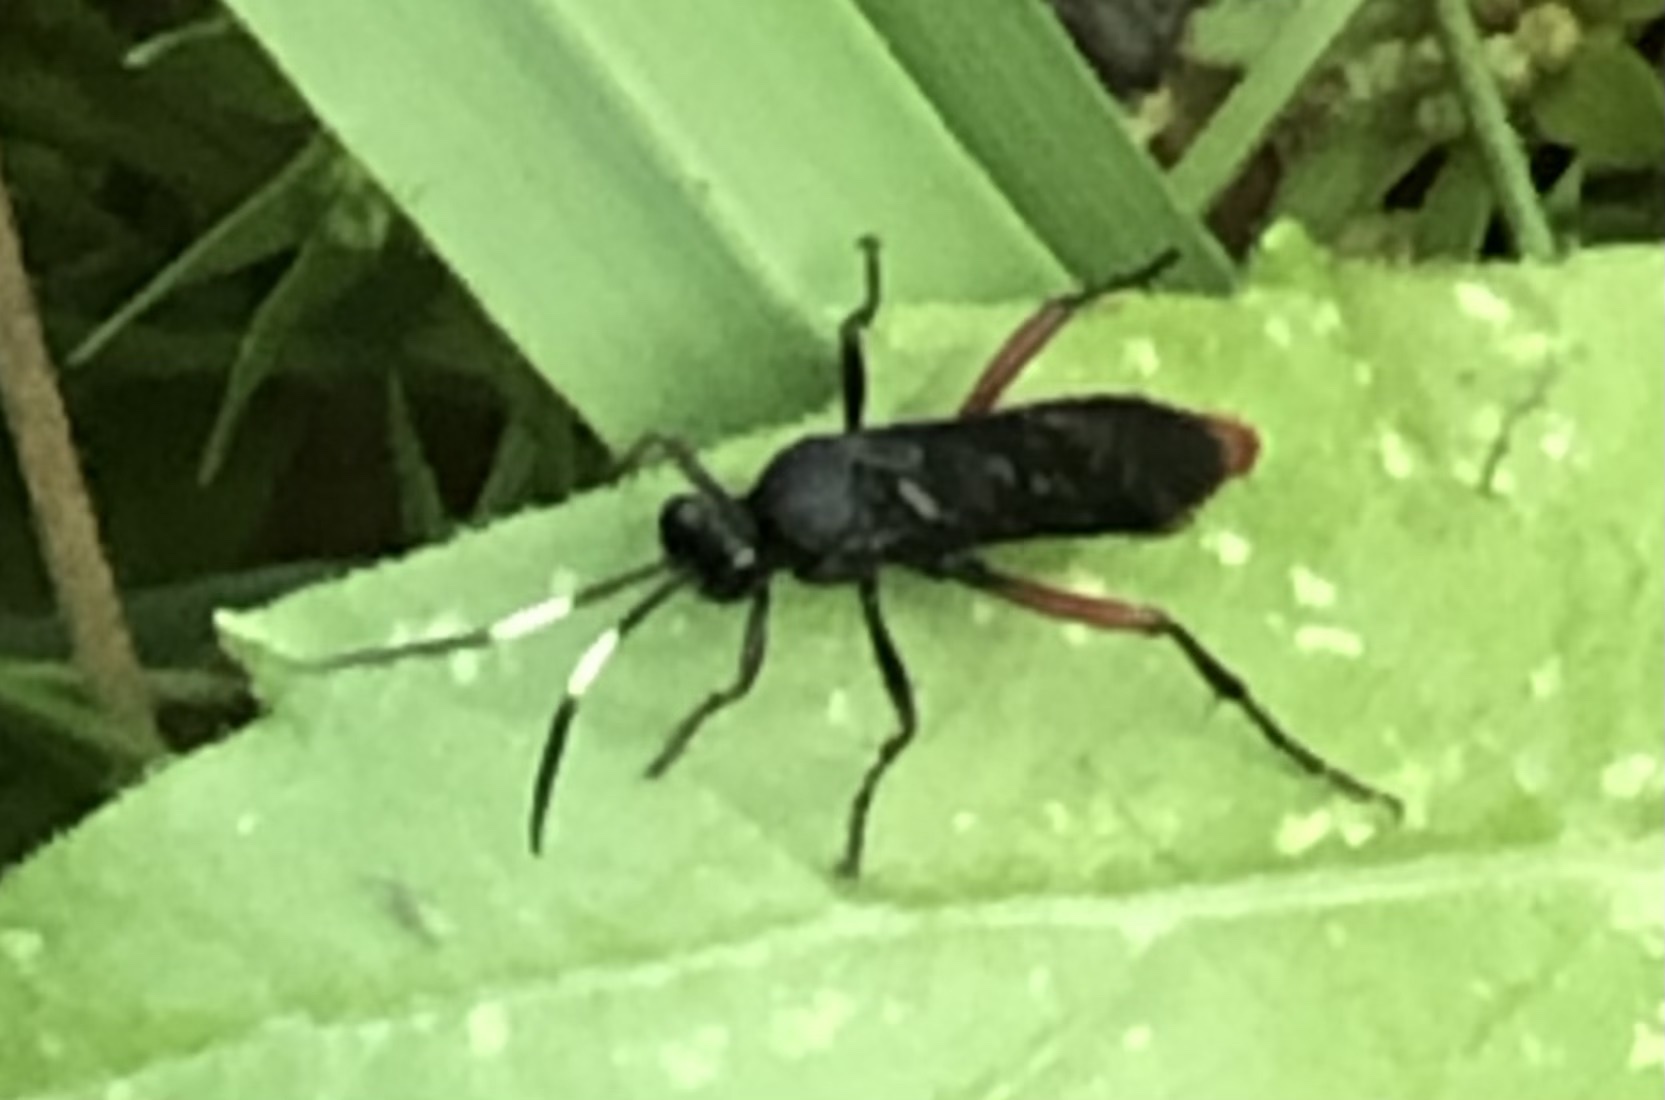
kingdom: Animalia
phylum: Arthropoda
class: Insecta
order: Hymenoptera
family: Ichneumonidae
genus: Limonethe
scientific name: Limonethe maurator
